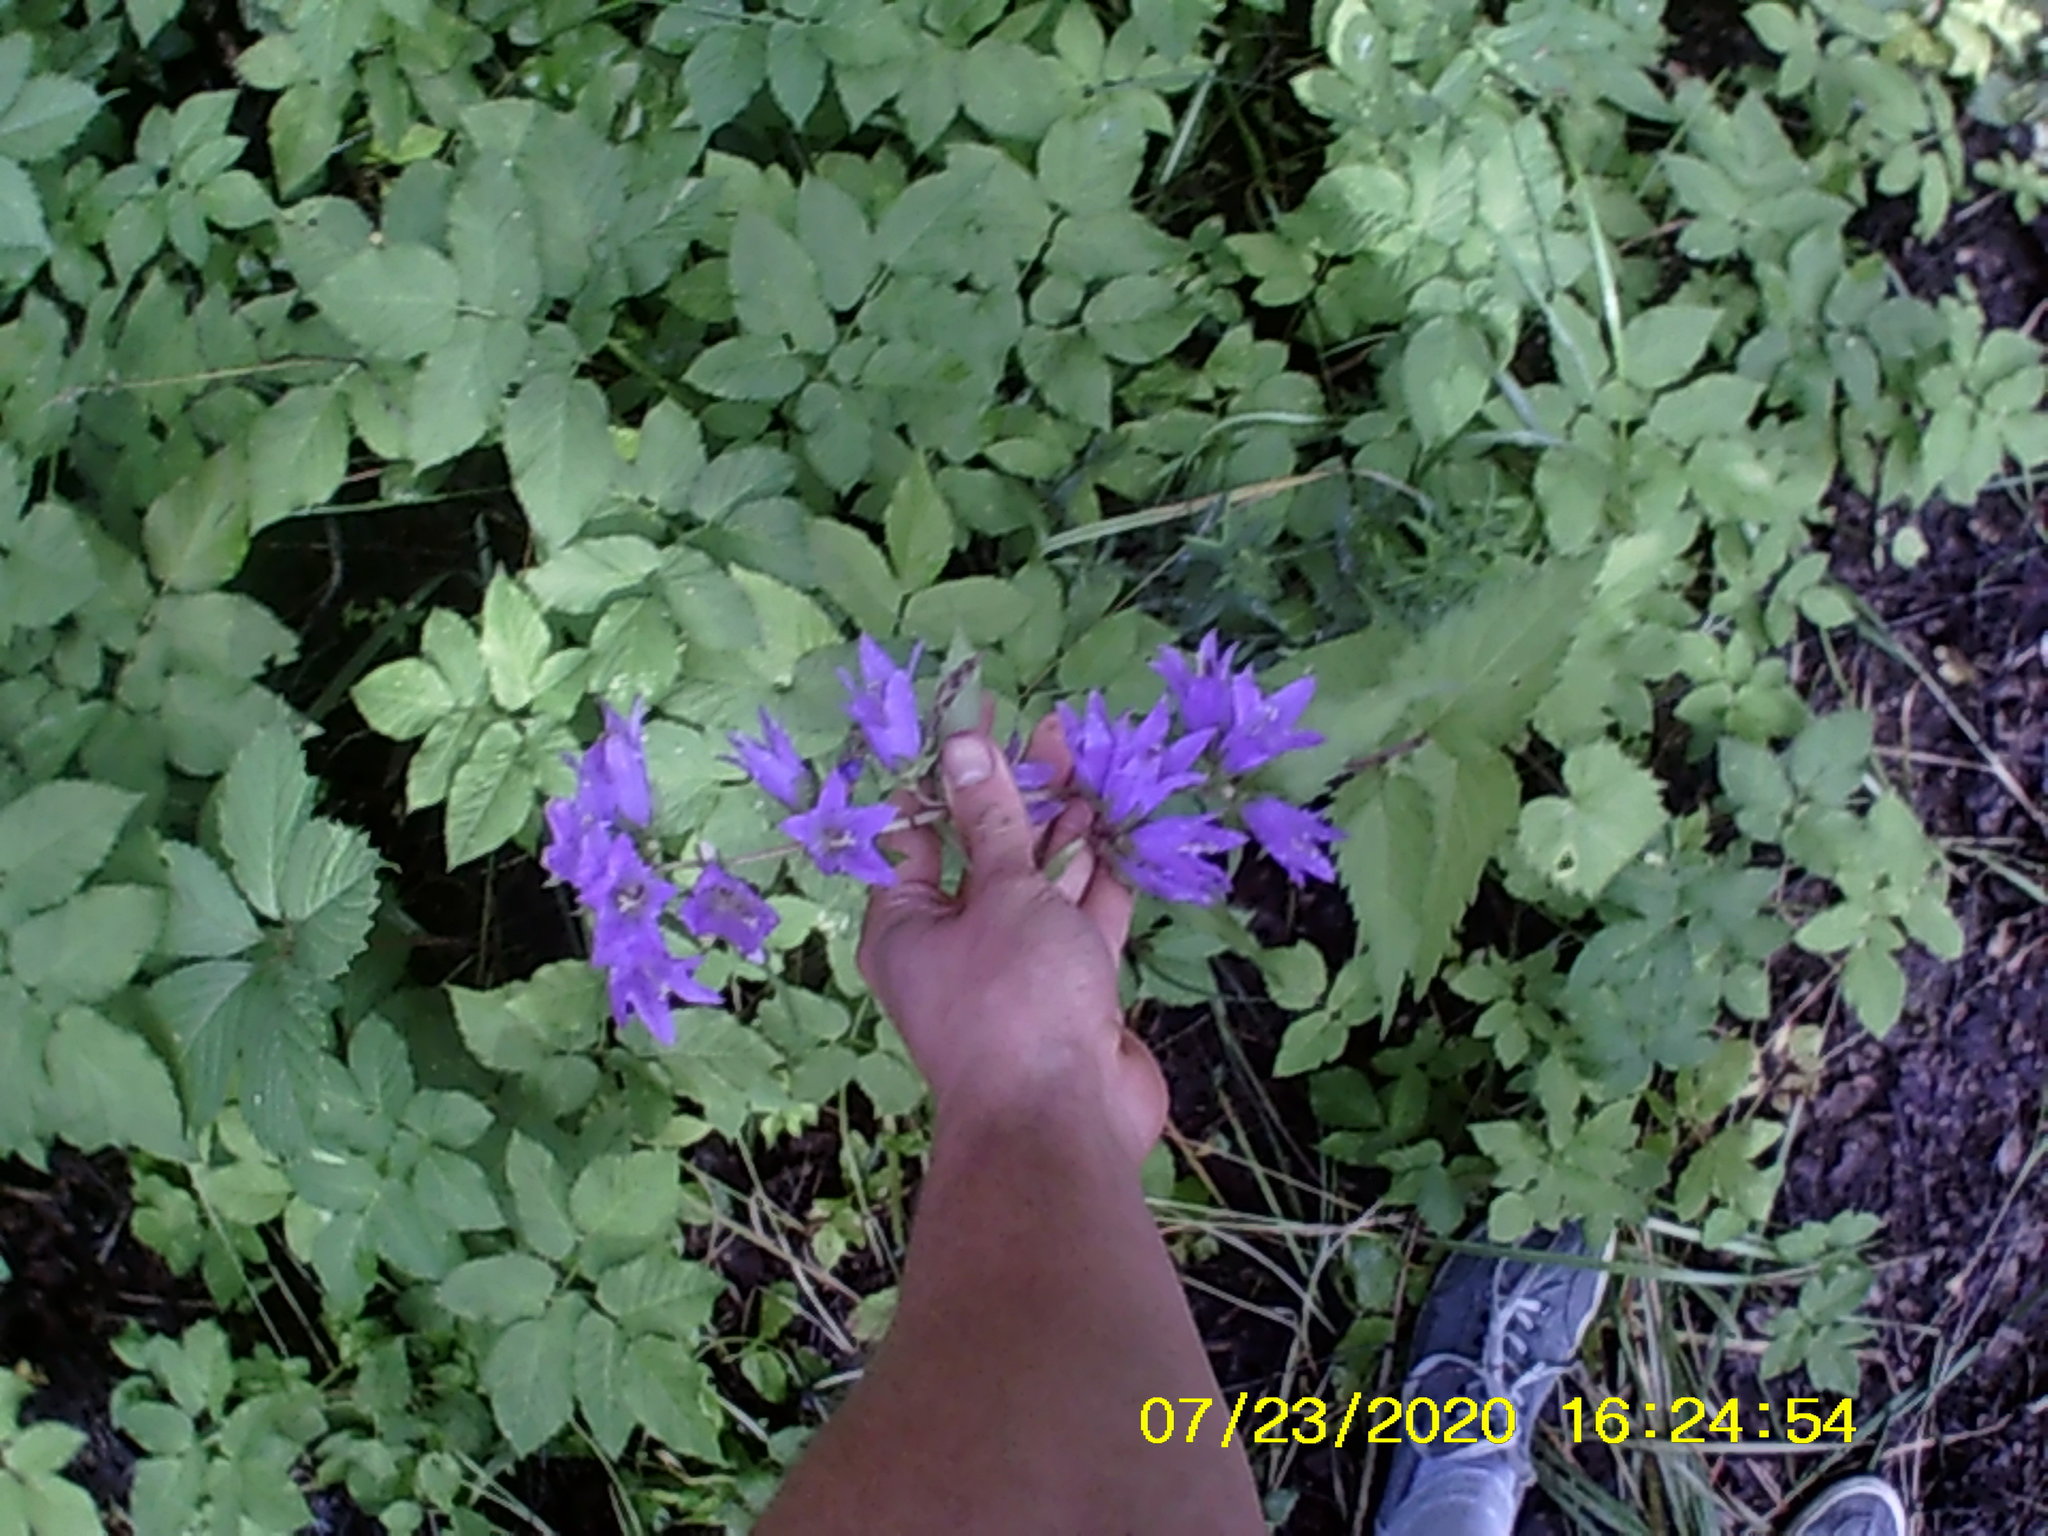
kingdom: Plantae
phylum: Tracheophyta
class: Magnoliopsida
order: Asterales
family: Campanulaceae
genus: Campanula
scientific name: Campanula trachelium
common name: Nettle-leaved bellflower
